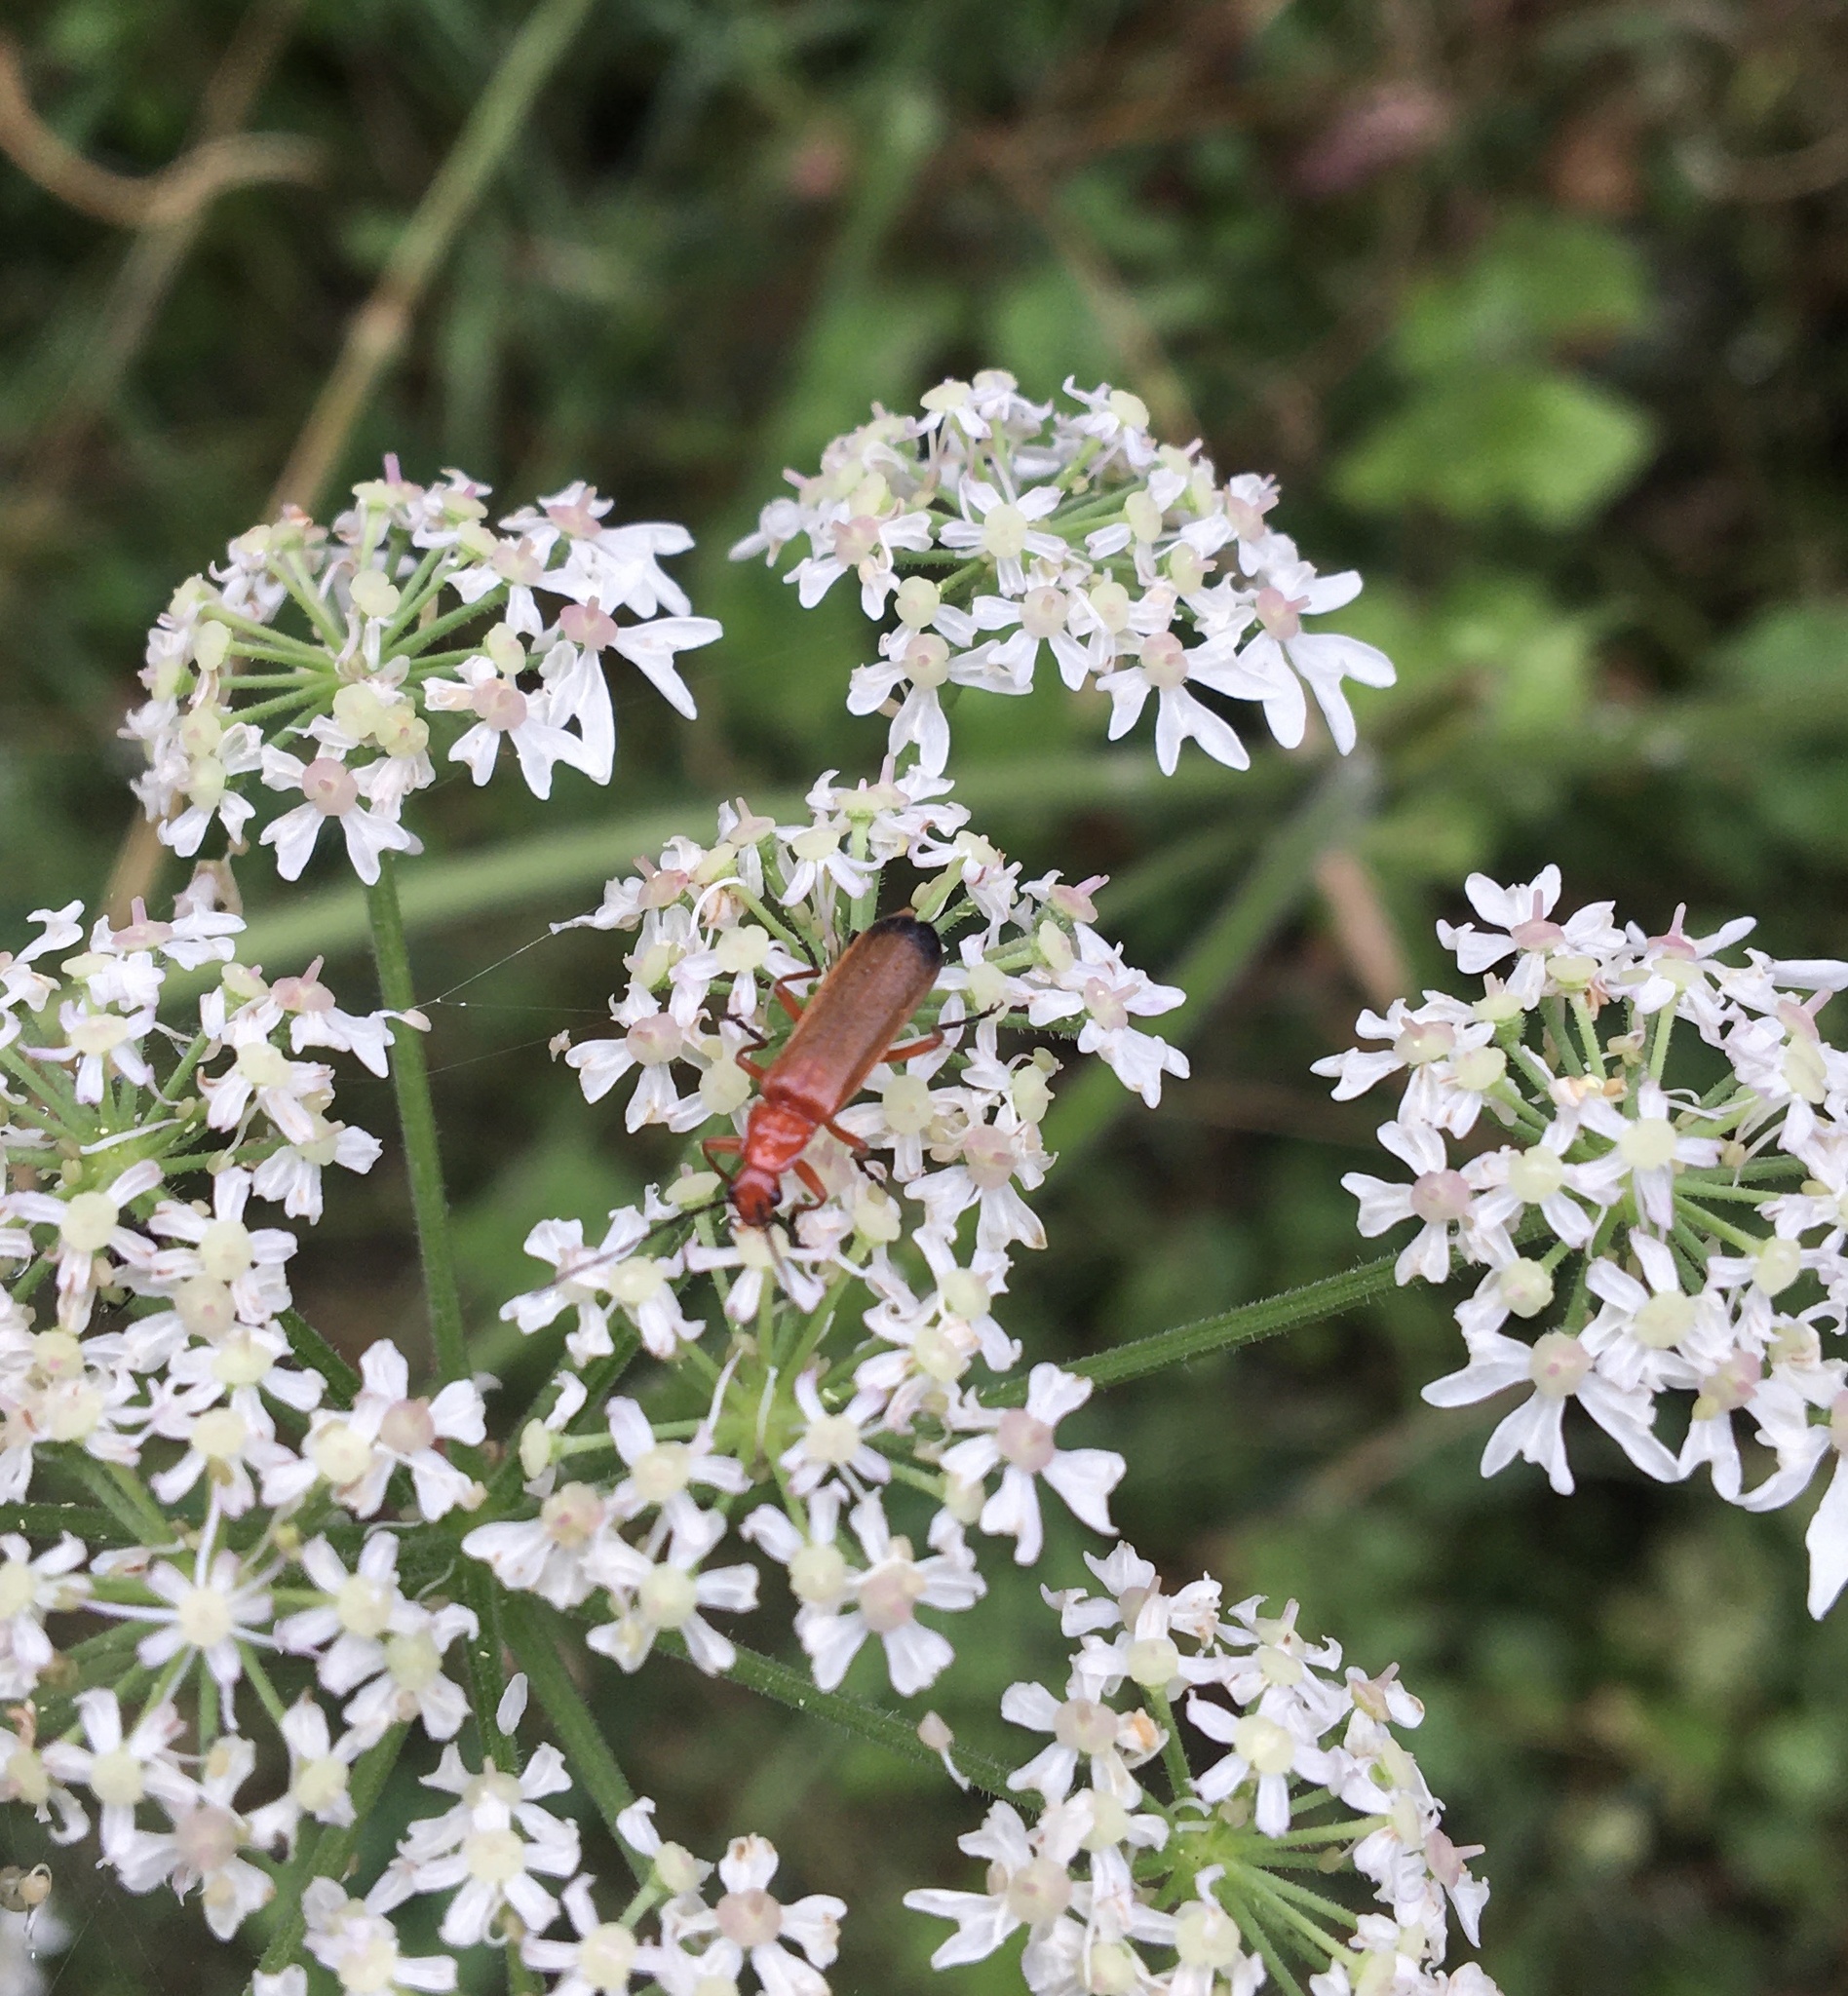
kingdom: Animalia
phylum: Arthropoda
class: Insecta
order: Coleoptera
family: Cantharidae
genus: Rhagonycha
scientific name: Rhagonycha fulva
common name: Common red soldier beetle
